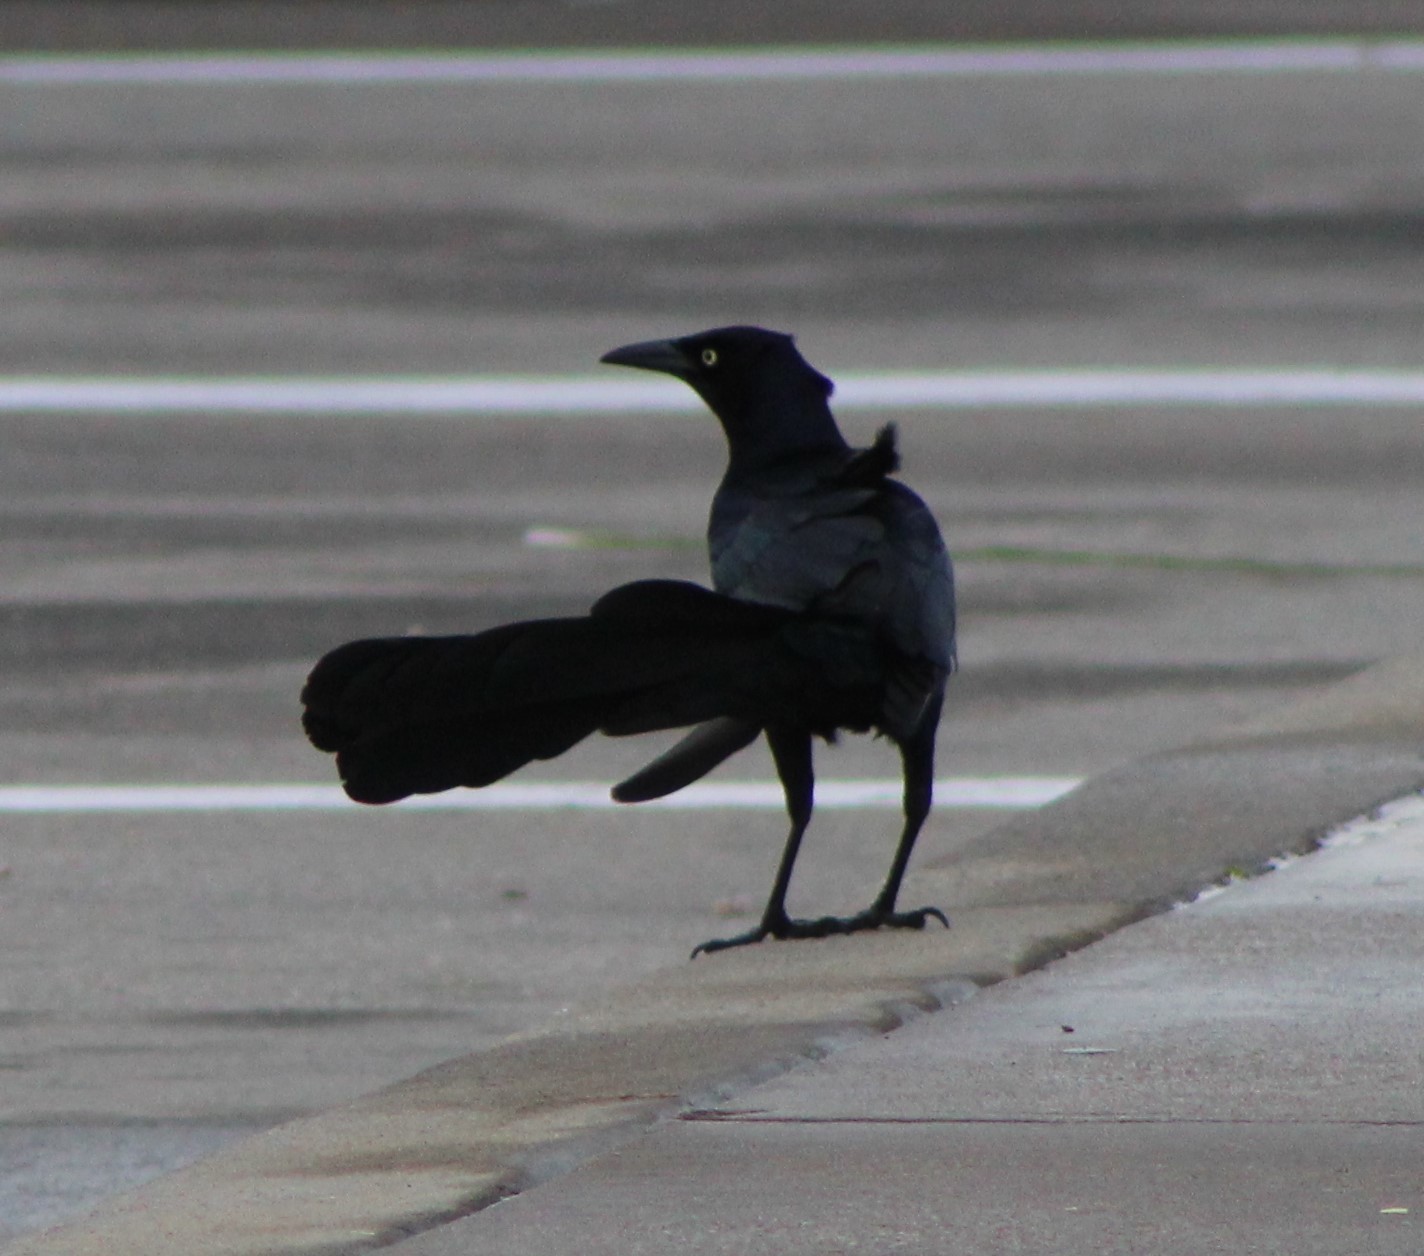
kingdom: Animalia
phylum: Chordata
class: Aves
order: Passeriformes
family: Icteridae
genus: Quiscalus
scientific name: Quiscalus mexicanus
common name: Great-tailed grackle
